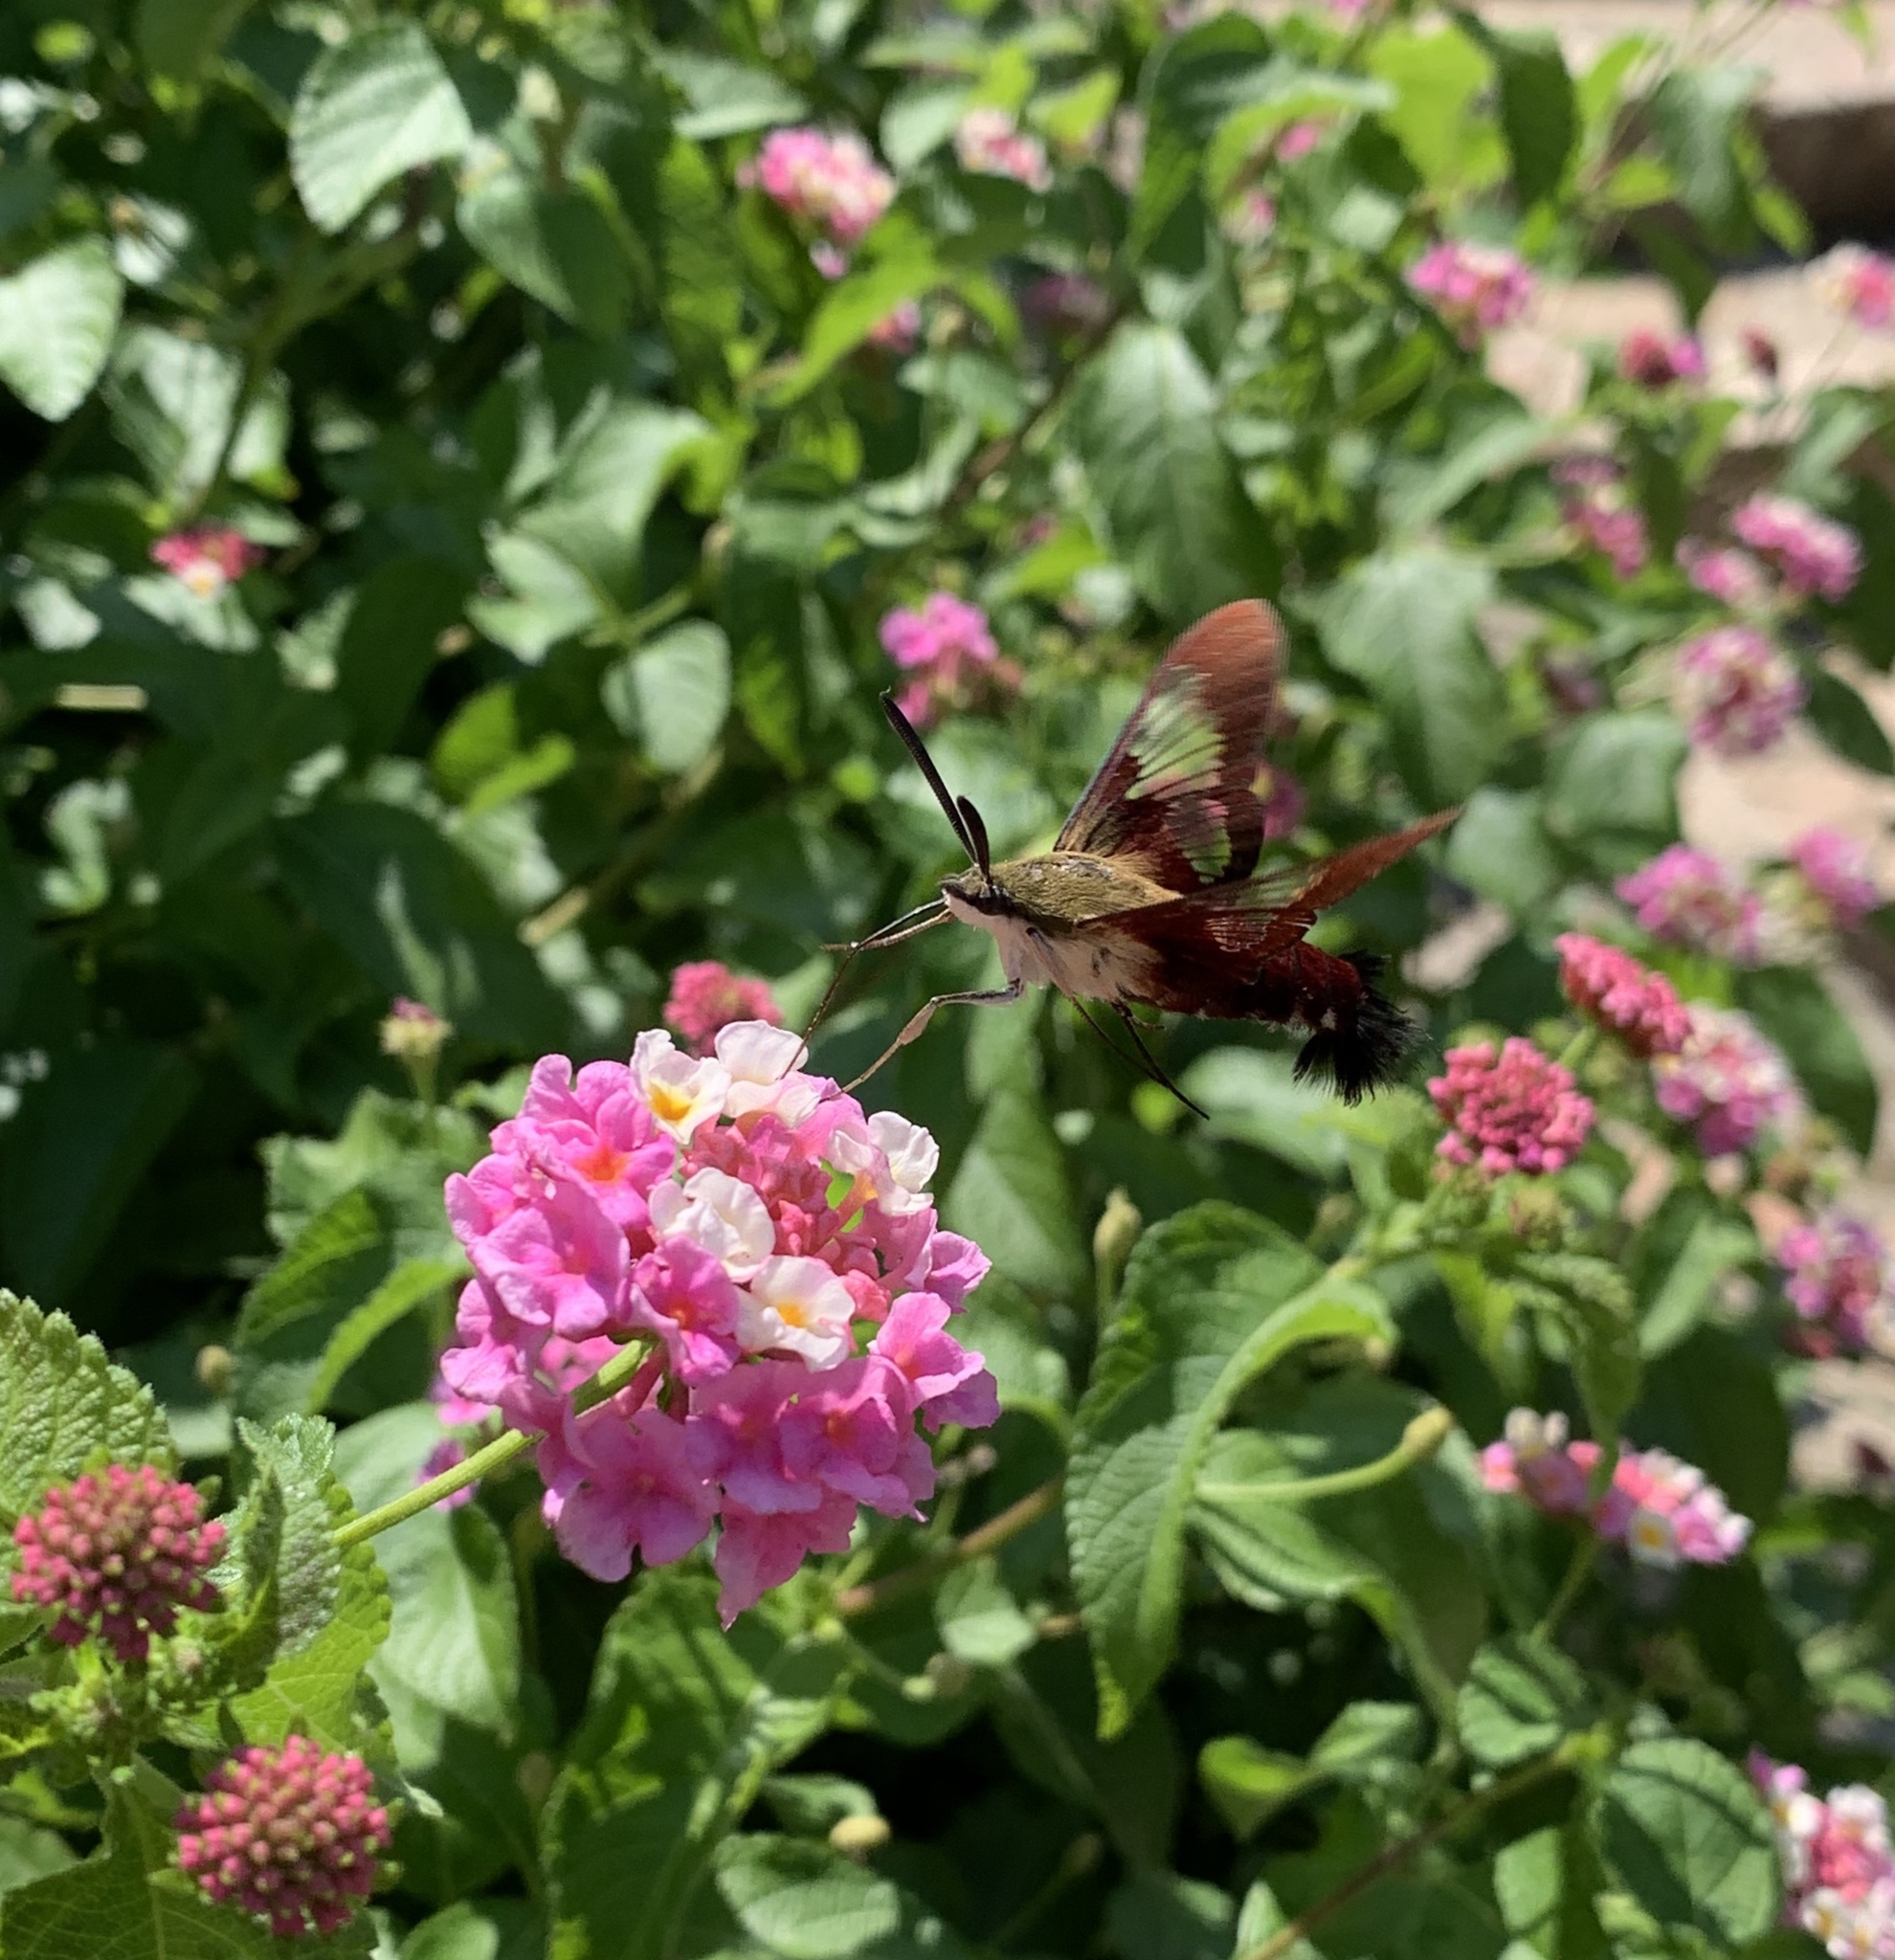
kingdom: Animalia
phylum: Arthropoda
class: Insecta
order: Lepidoptera
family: Sphingidae
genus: Hemaris
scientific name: Hemaris thysbe
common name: Common clear-wing
